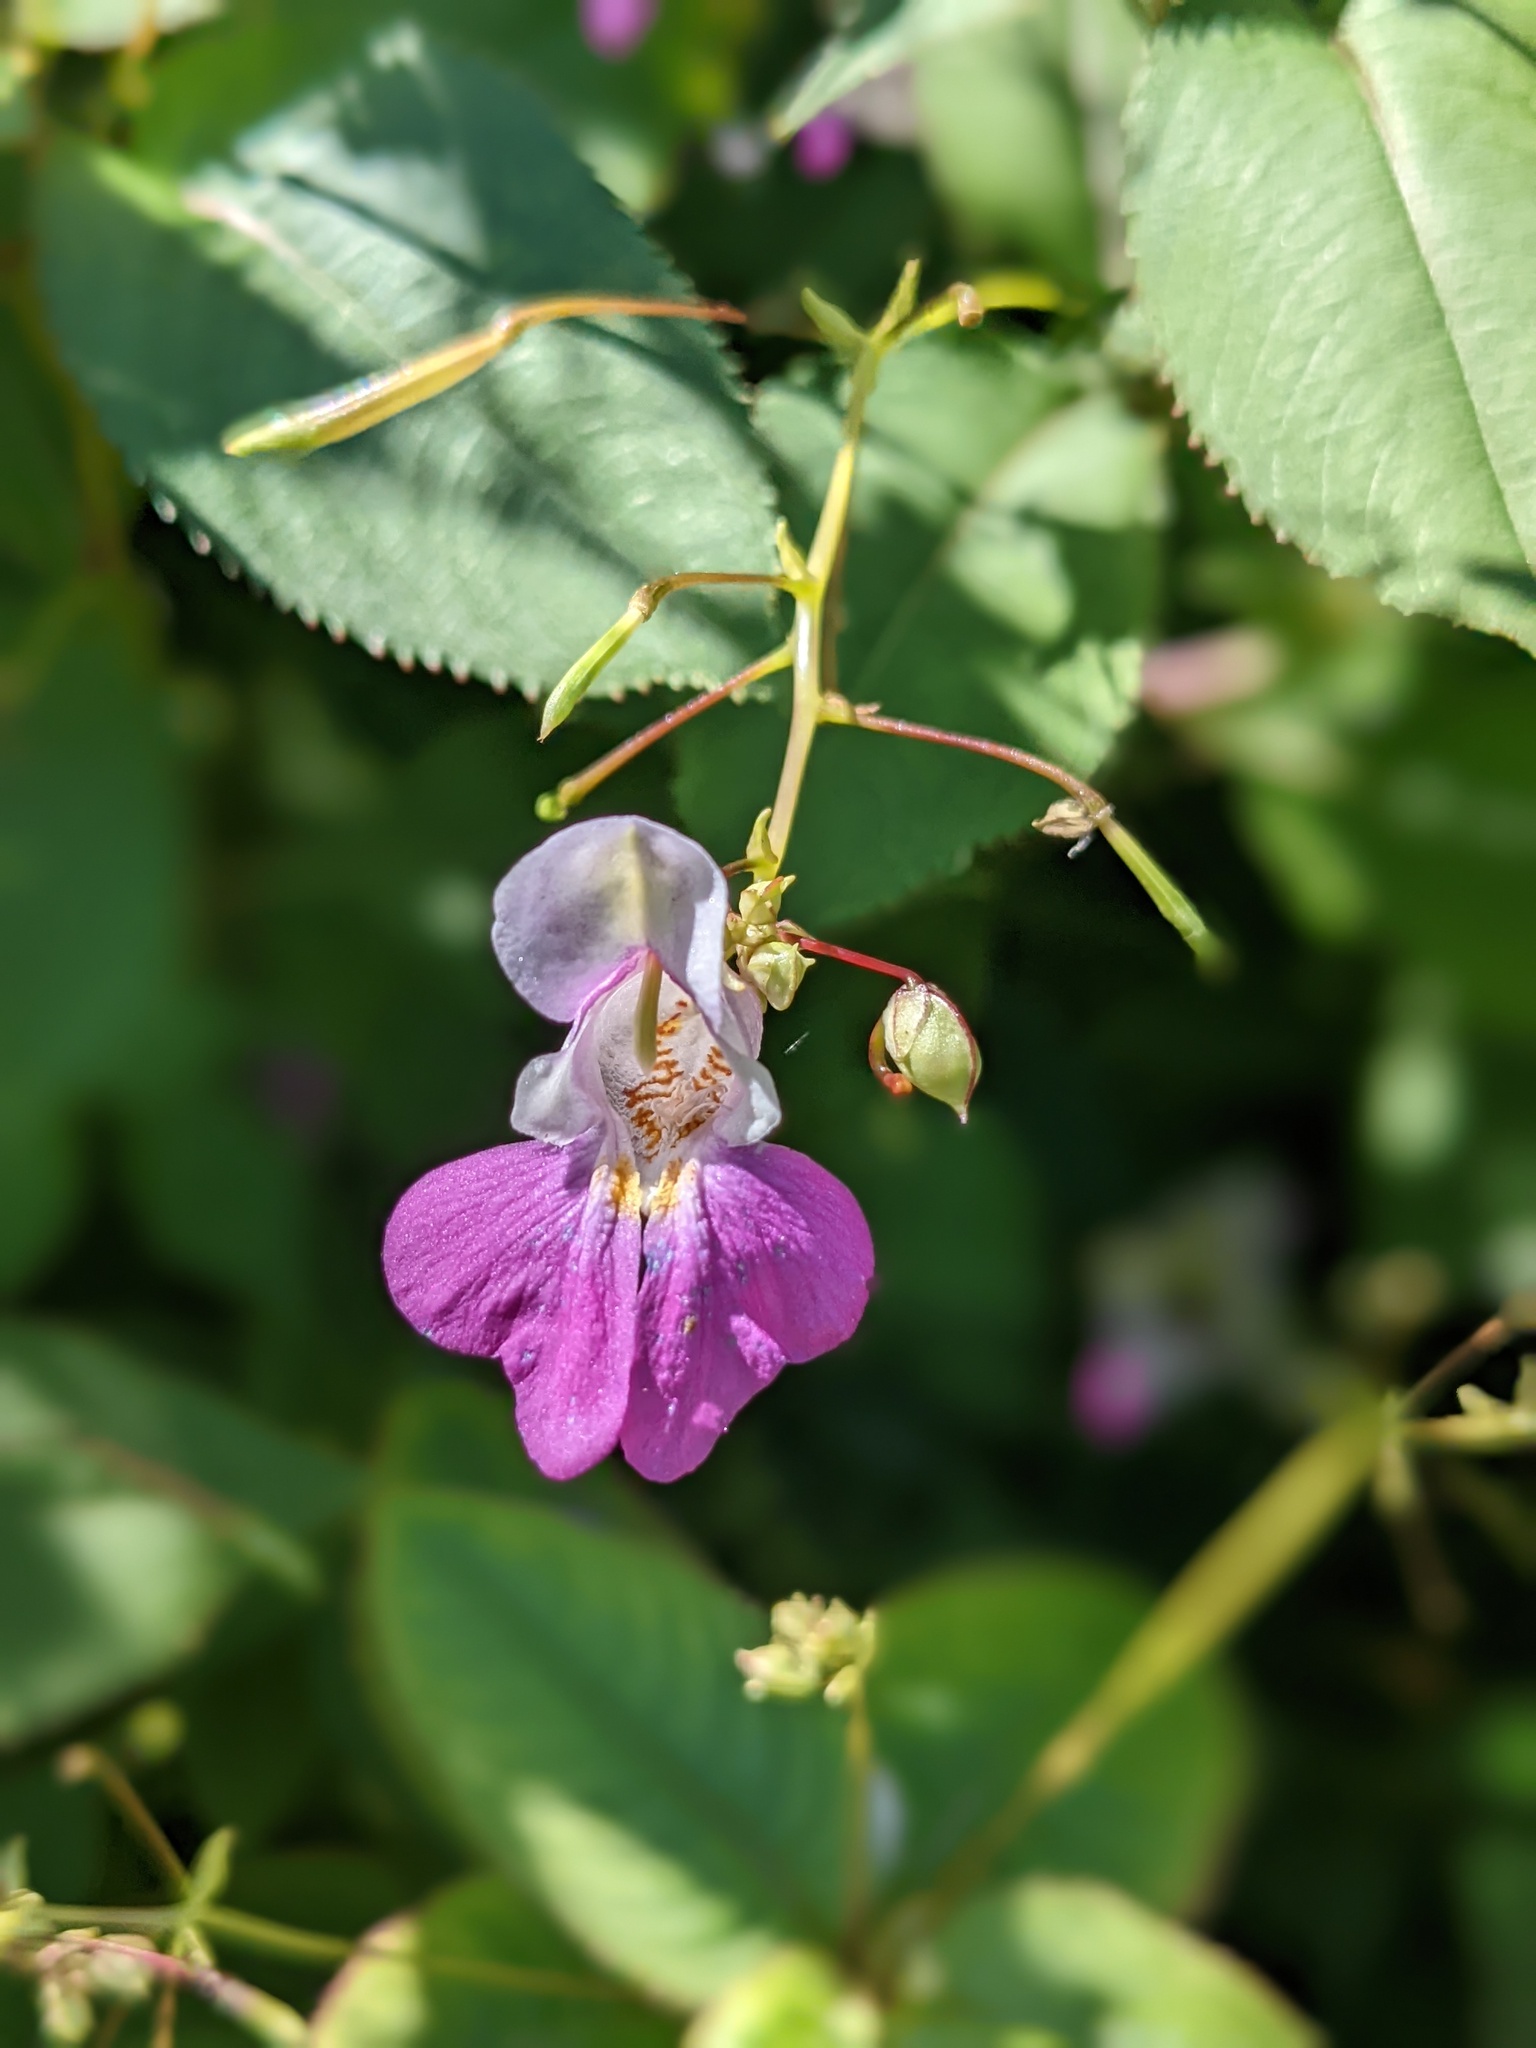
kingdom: Plantae
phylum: Tracheophyta
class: Magnoliopsida
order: Ericales
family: Balsaminaceae
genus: Impatiens
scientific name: Impatiens balfourii
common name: Balfour's touch-me-not
